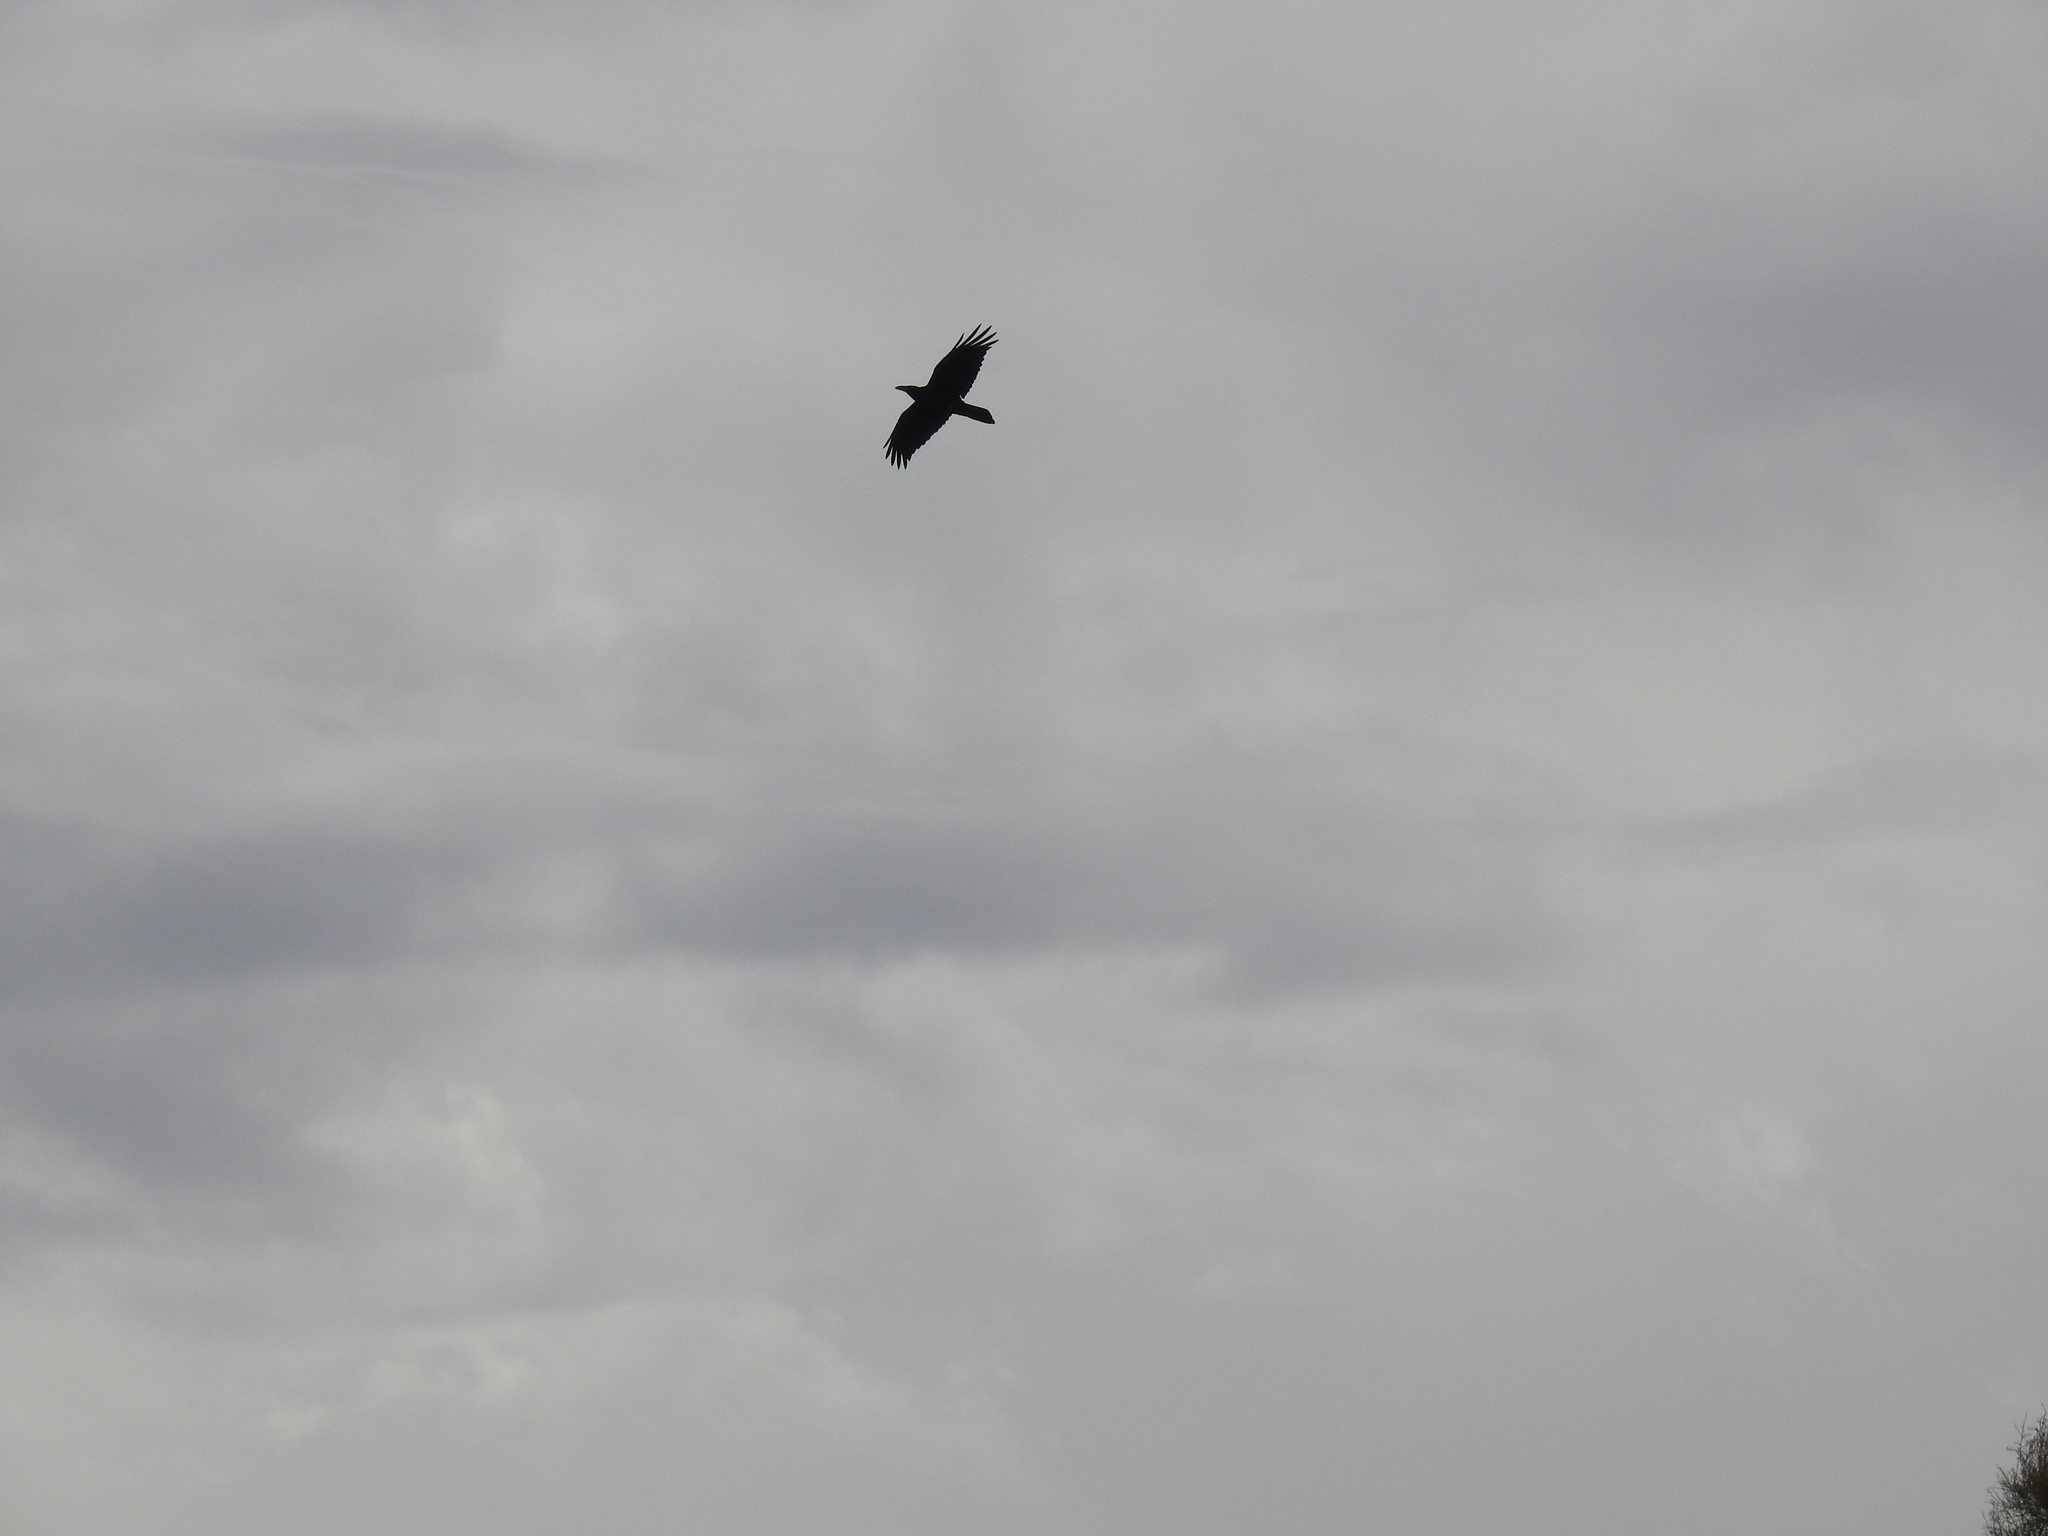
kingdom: Animalia
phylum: Chordata
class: Aves
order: Passeriformes
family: Corvidae
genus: Corvus
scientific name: Corvus corax
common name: Common raven
